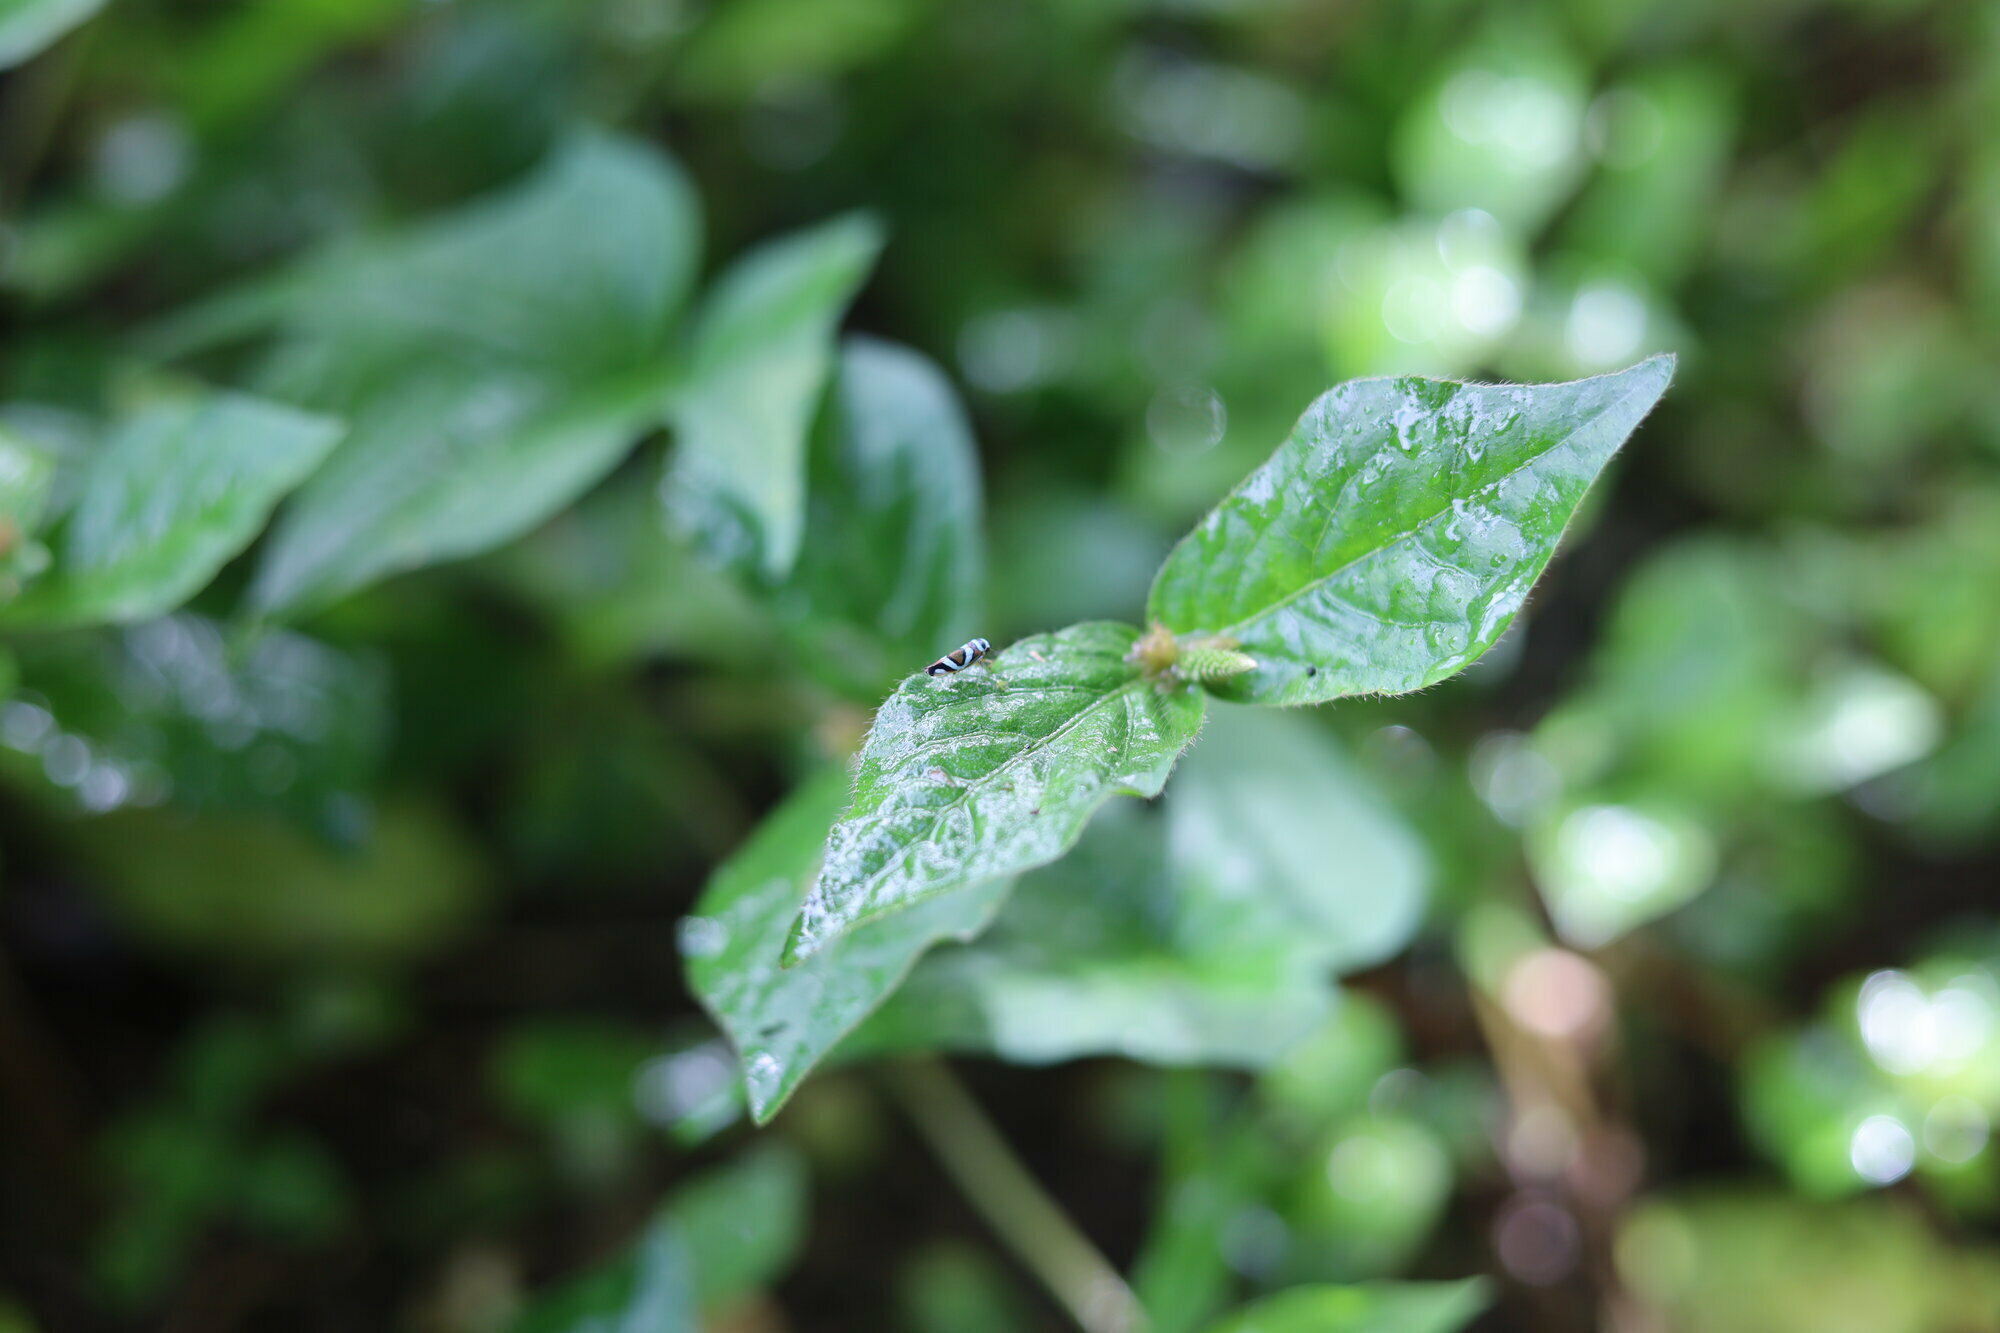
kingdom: Animalia
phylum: Arthropoda
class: Insecta
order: Hemiptera
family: Cicadellidae
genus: Macugonalia
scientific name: Macugonalia moesta
